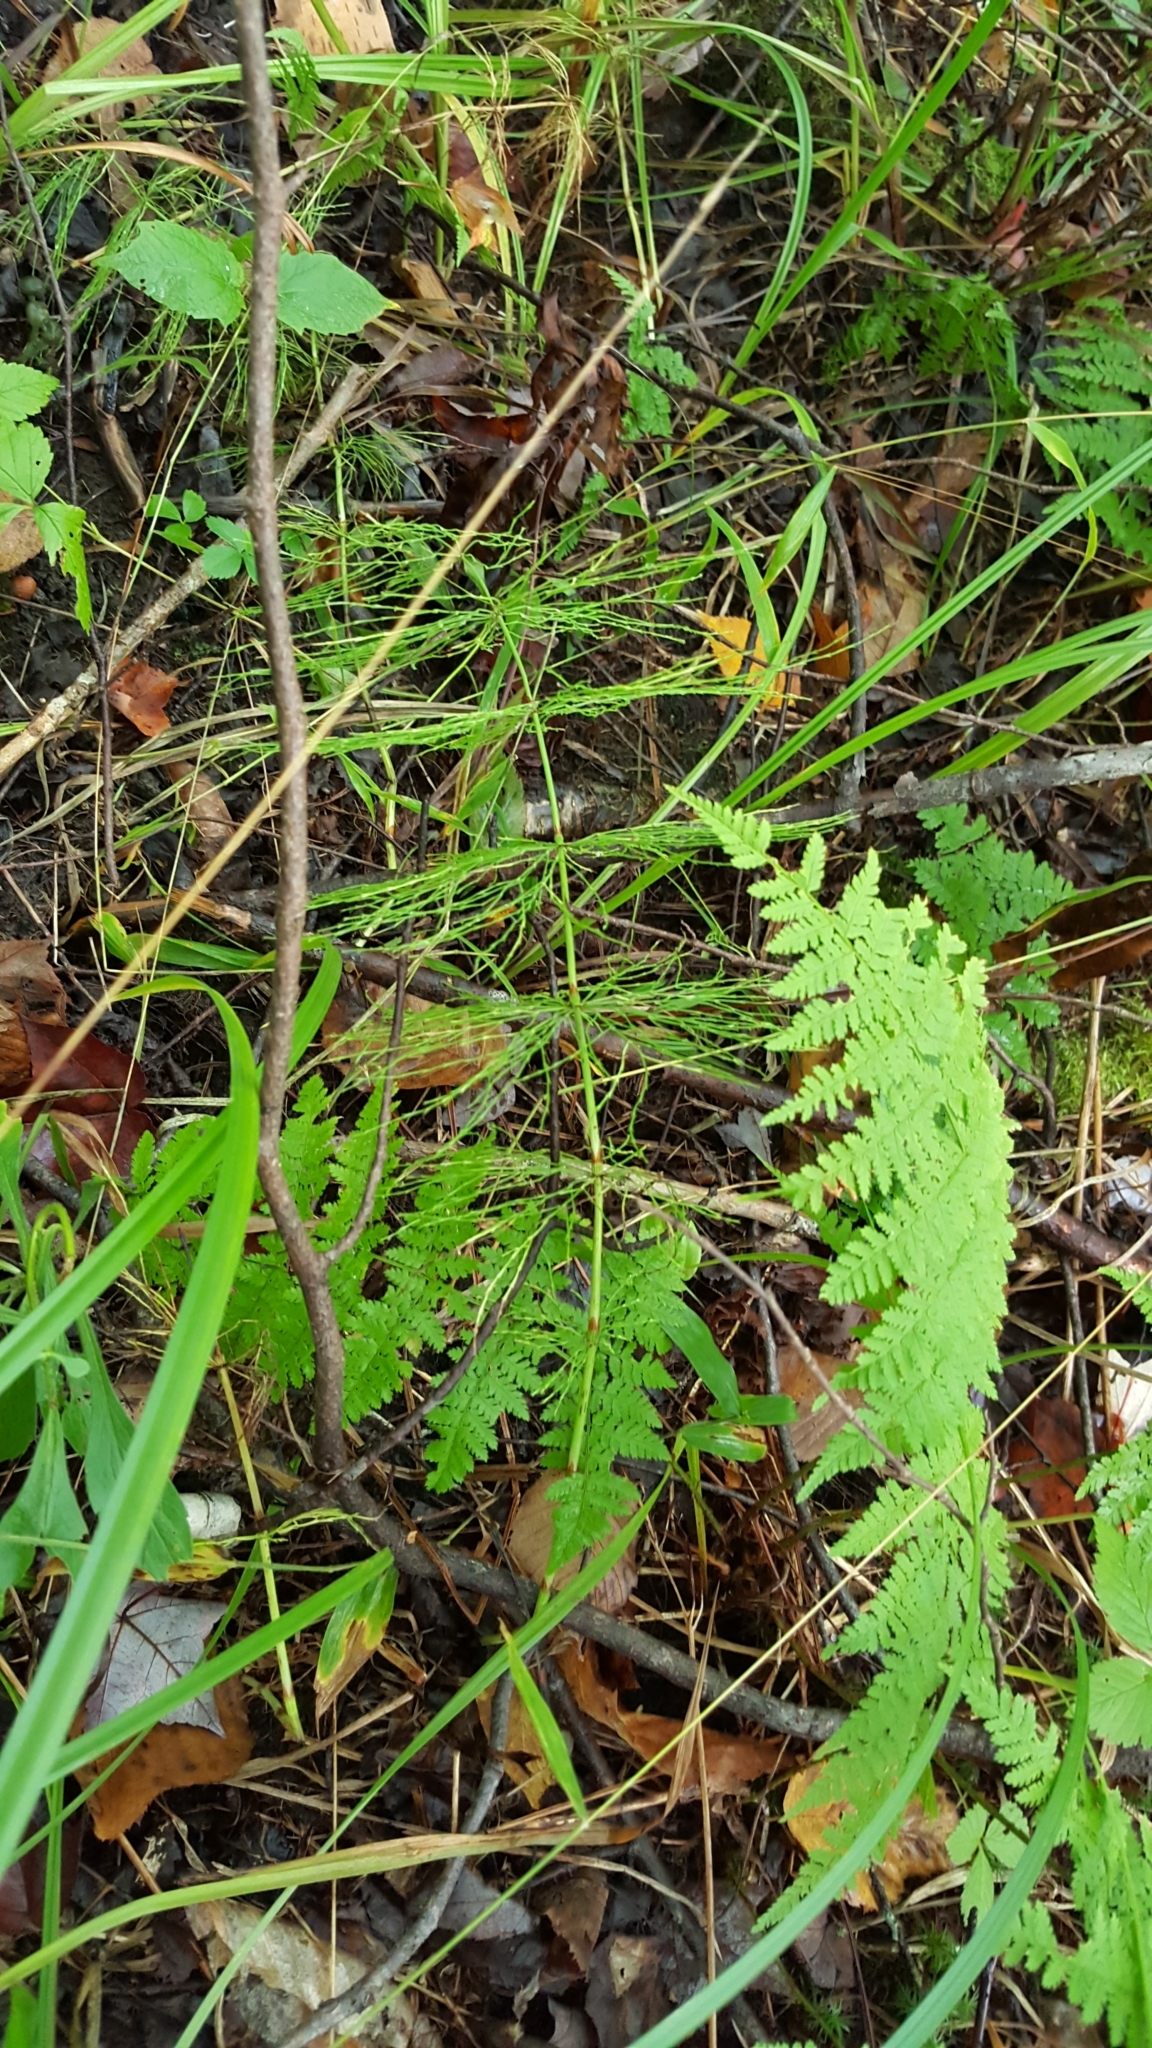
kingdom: Plantae
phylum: Tracheophyta
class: Polypodiopsida
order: Equisetales
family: Equisetaceae
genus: Equisetum
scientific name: Equisetum sylvaticum
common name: Wood horsetail
